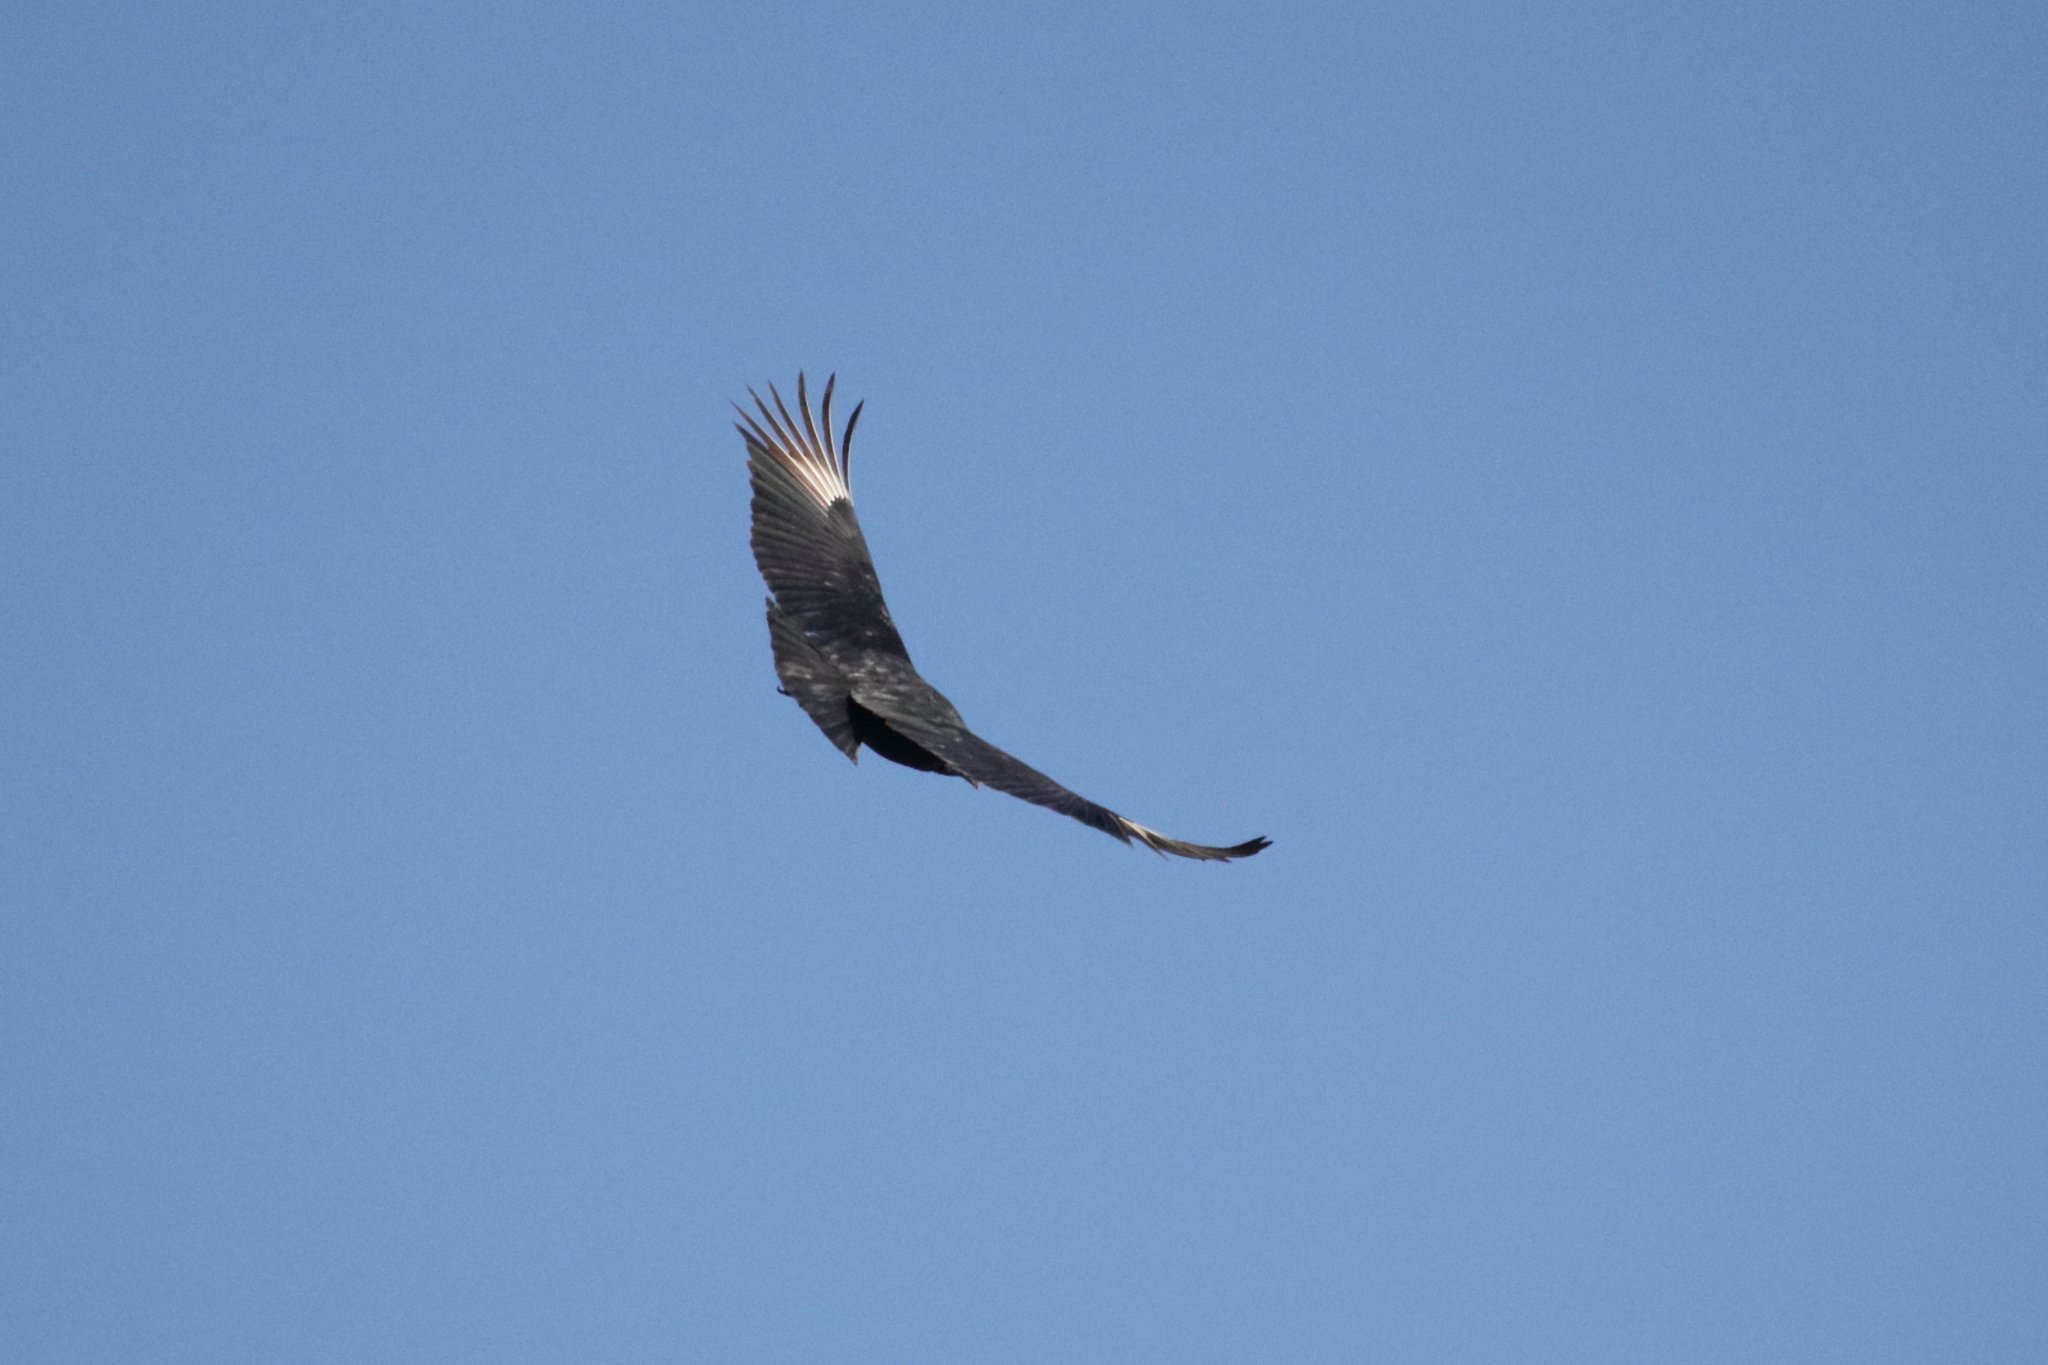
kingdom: Animalia
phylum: Chordata
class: Aves
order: Accipitriformes
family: Cathartidae
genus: Coragyps
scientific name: Coragyps atratus
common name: Black vulture
